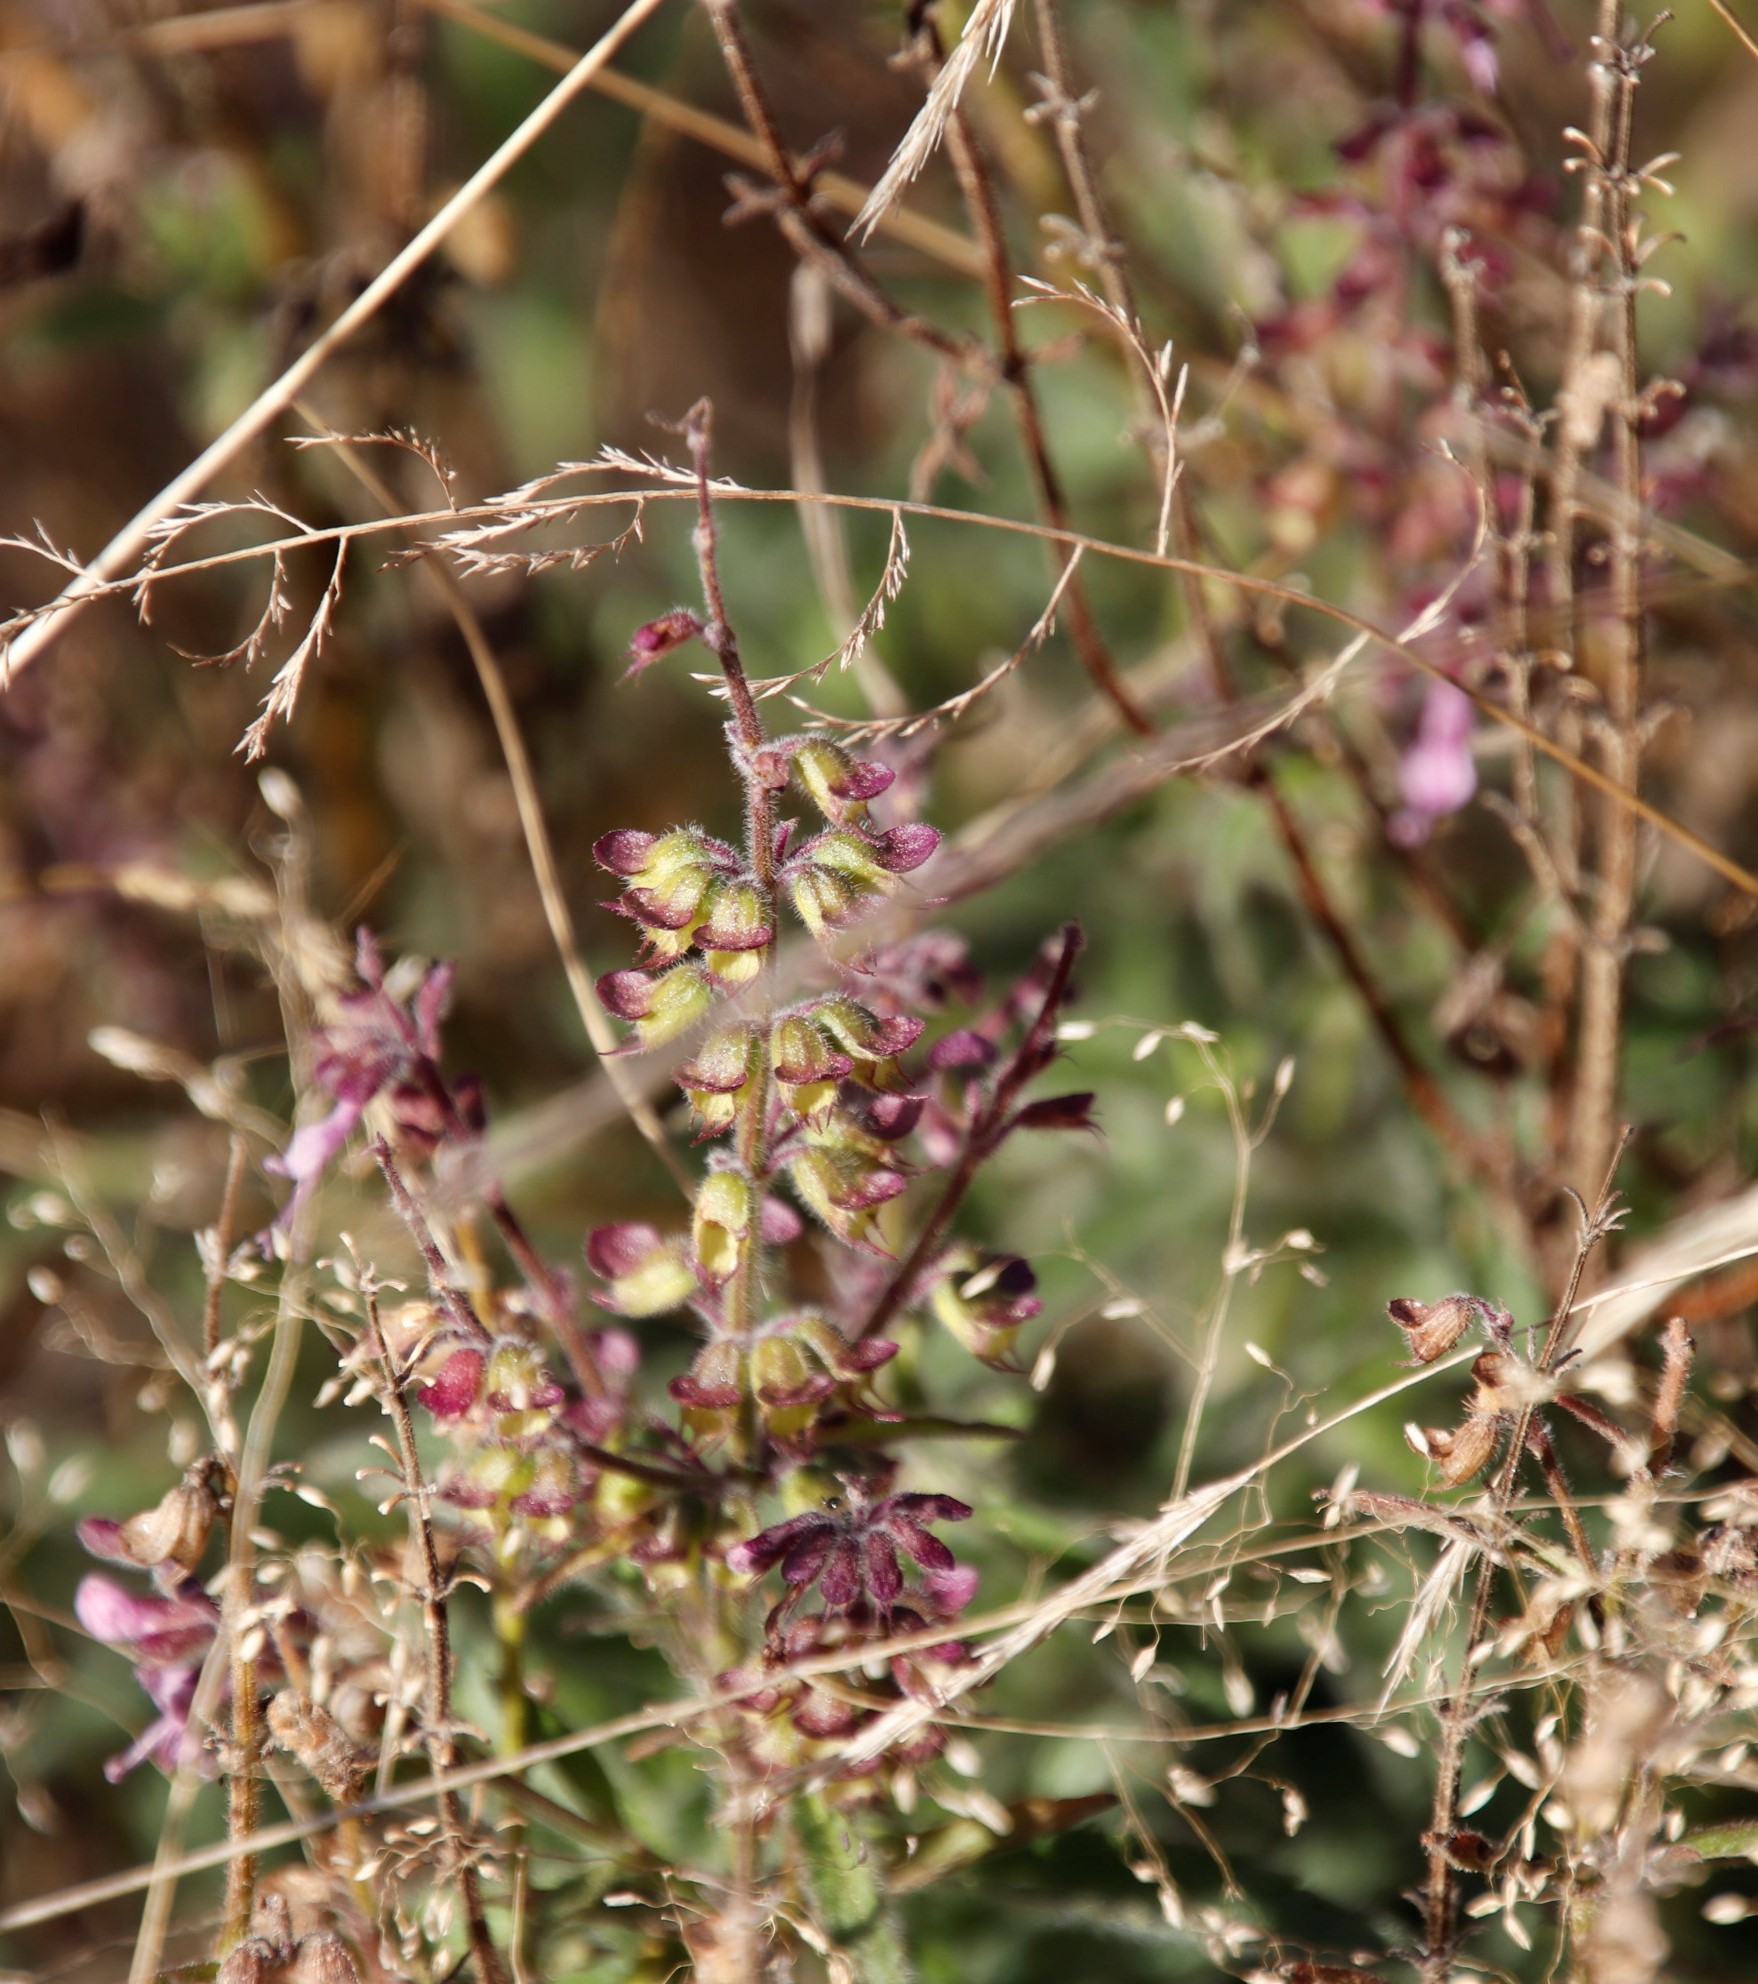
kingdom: Plantae
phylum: Tracheophyta
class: Magnoliopsida
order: Lamiales
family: Lamiaceae
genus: Syncolostemon
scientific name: Syncolostemon canescens
